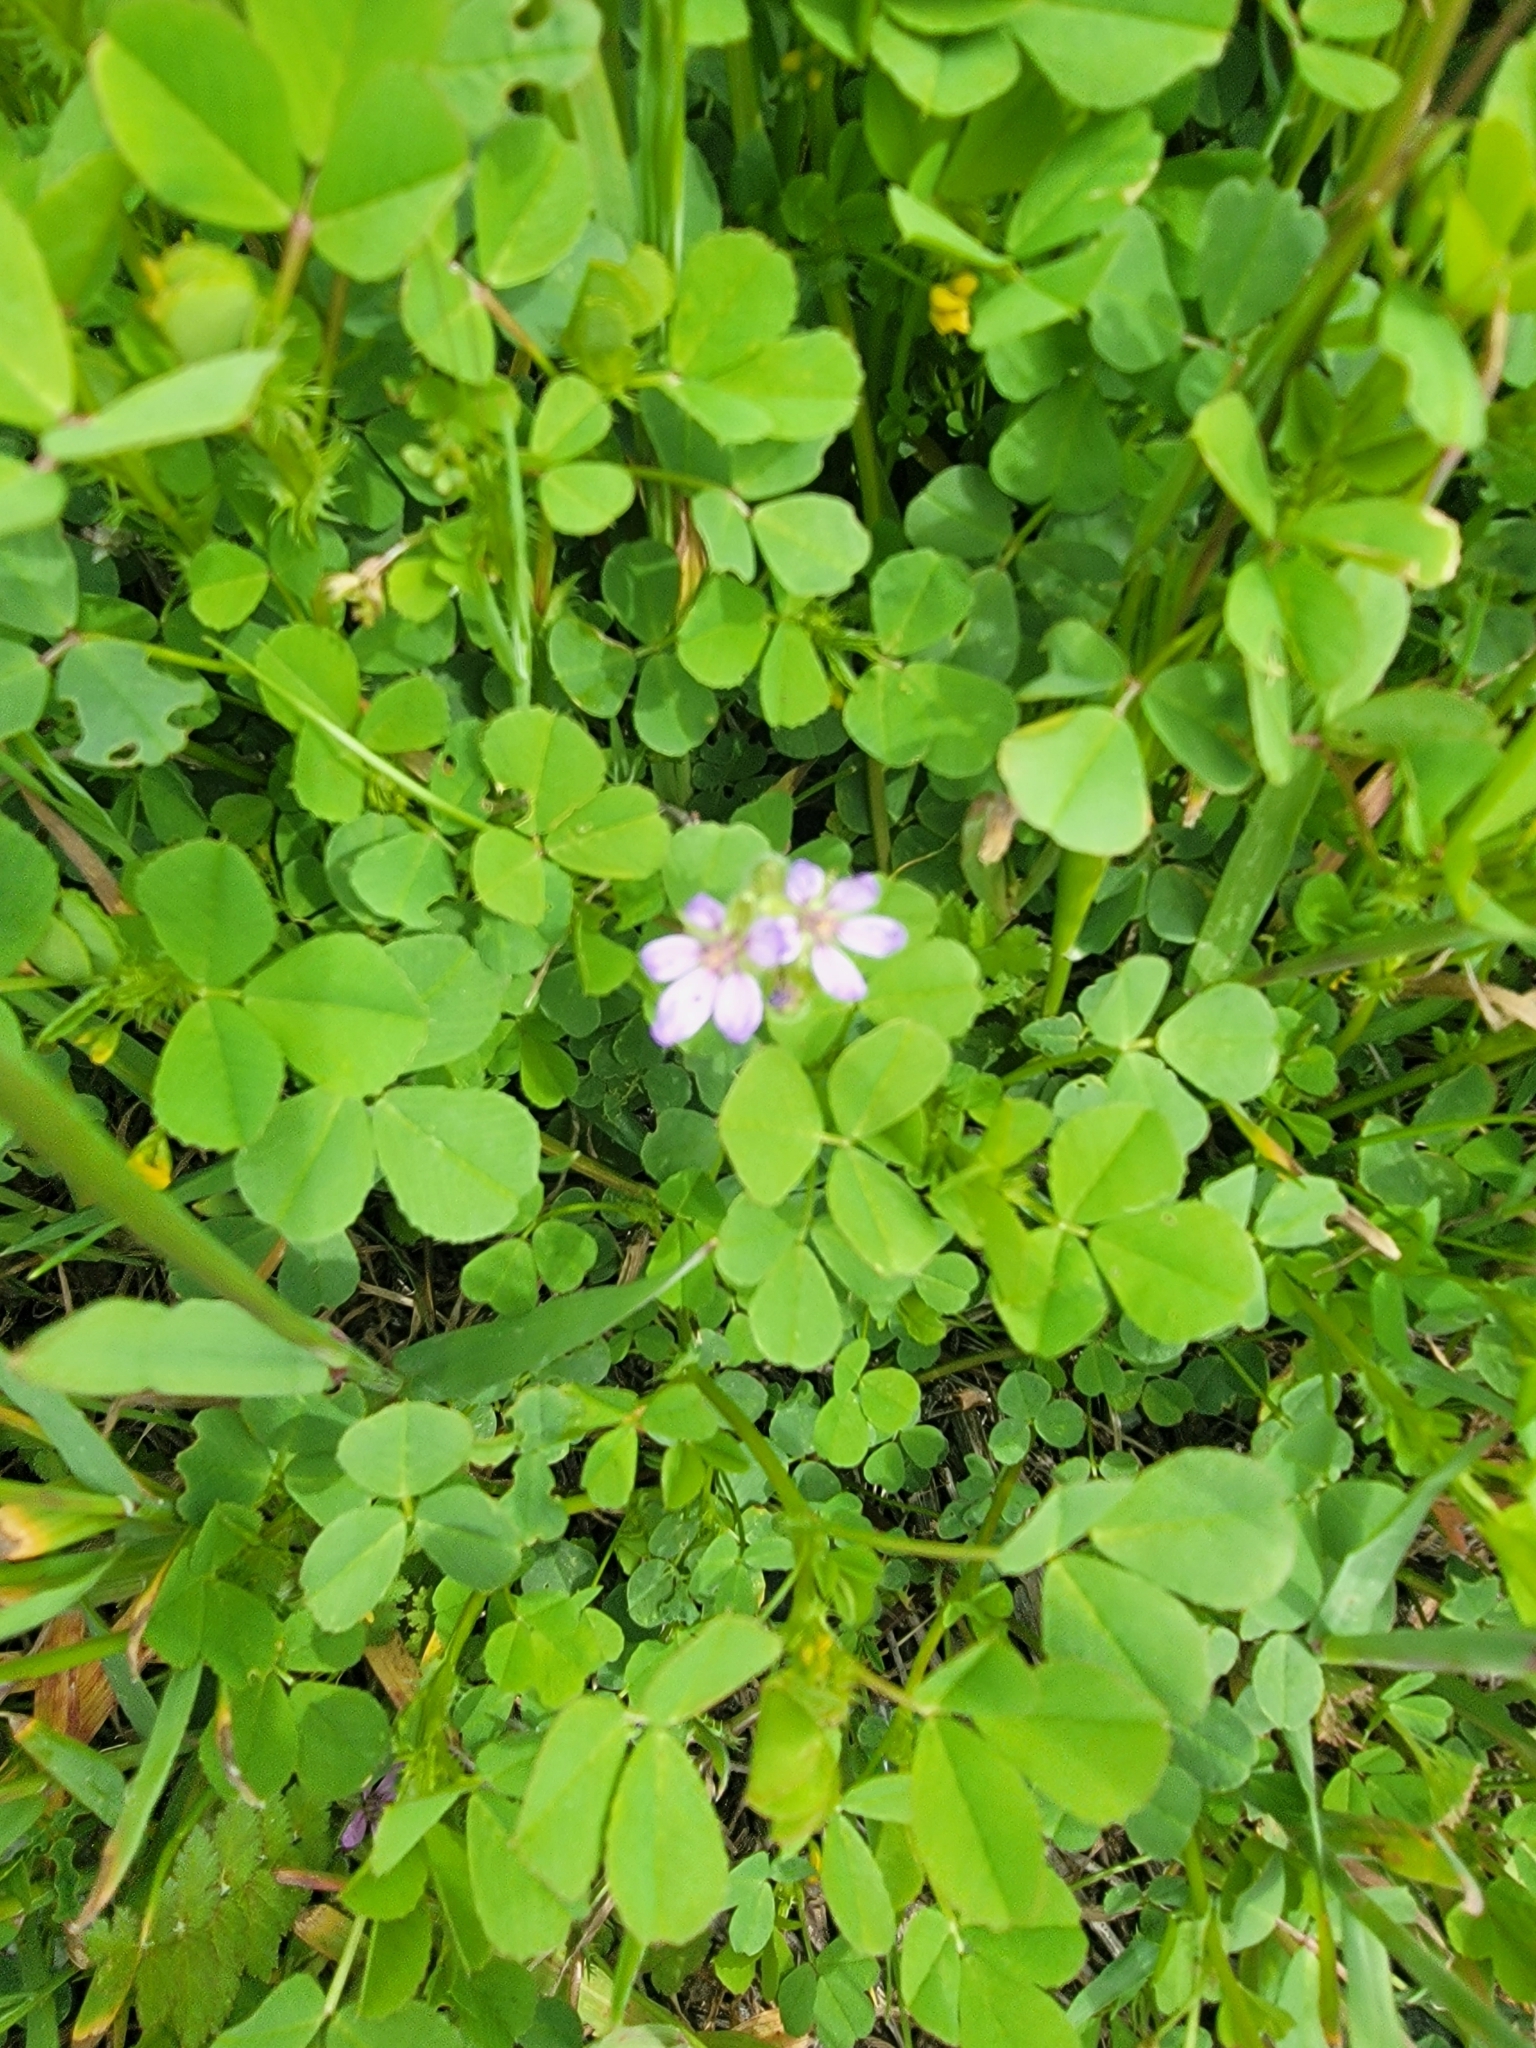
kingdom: Plantae
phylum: Tracheophyta
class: Magnoliopsida
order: Geraniales
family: Geraniaceae
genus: Erodium
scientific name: Erodium moschatum
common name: Musk stork's-bill
